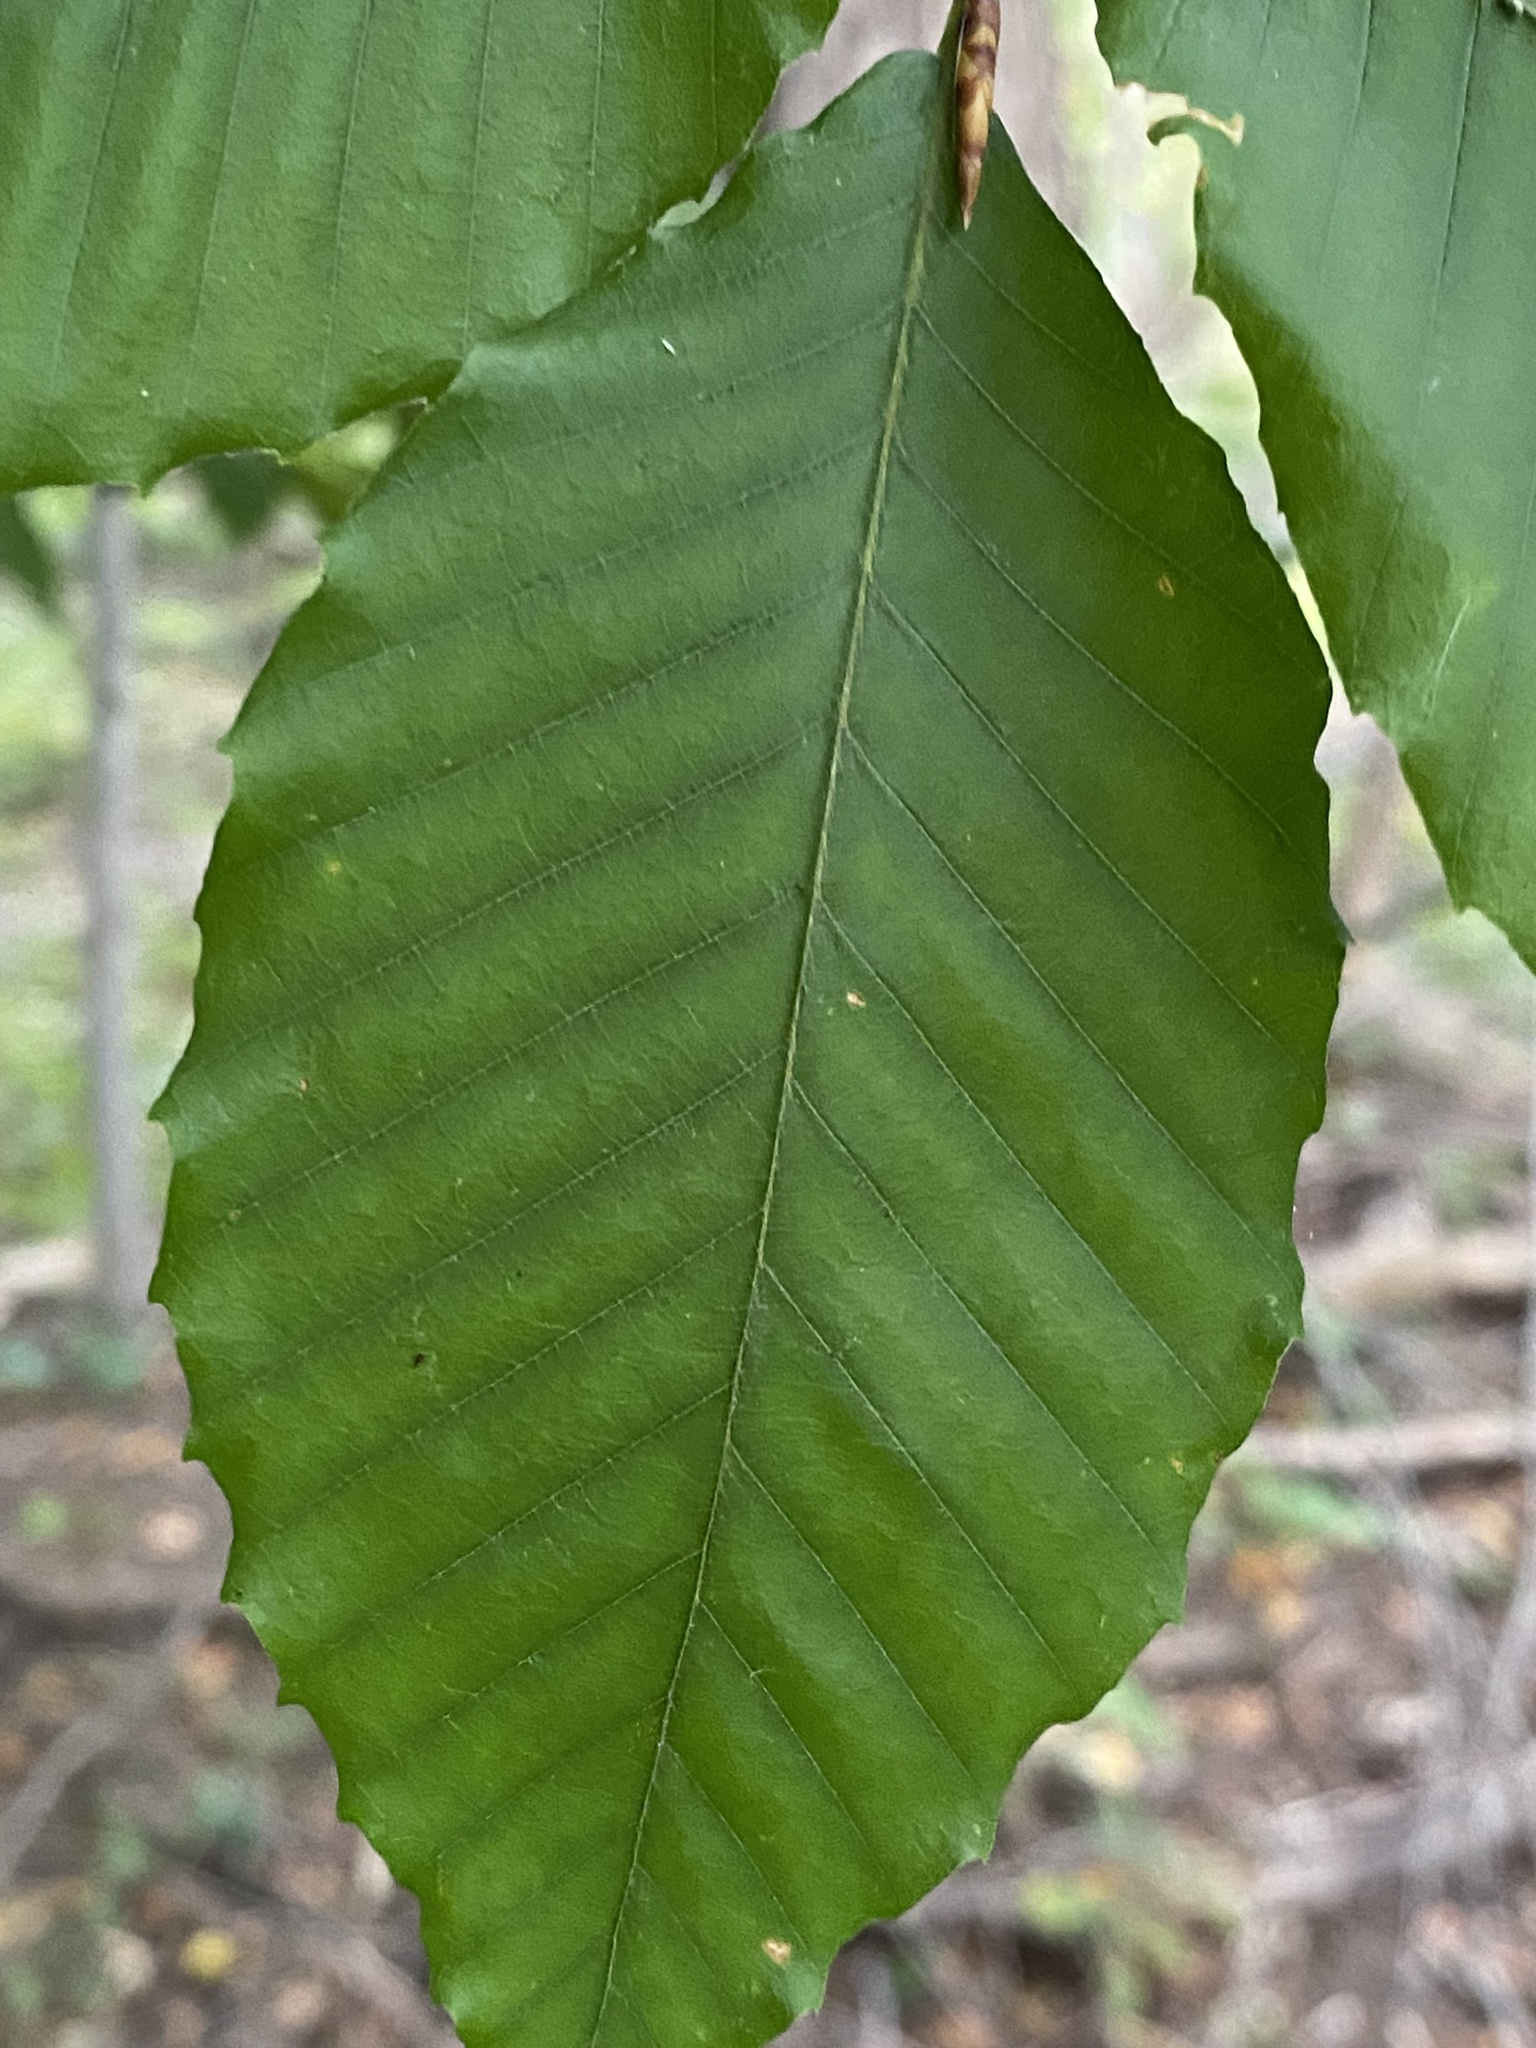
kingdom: Plantae
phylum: Tracheophyta
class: Magnoliopsida
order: Fagales
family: Fagaceae
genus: Fagus
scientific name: Fagus grandifolia
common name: American beech
